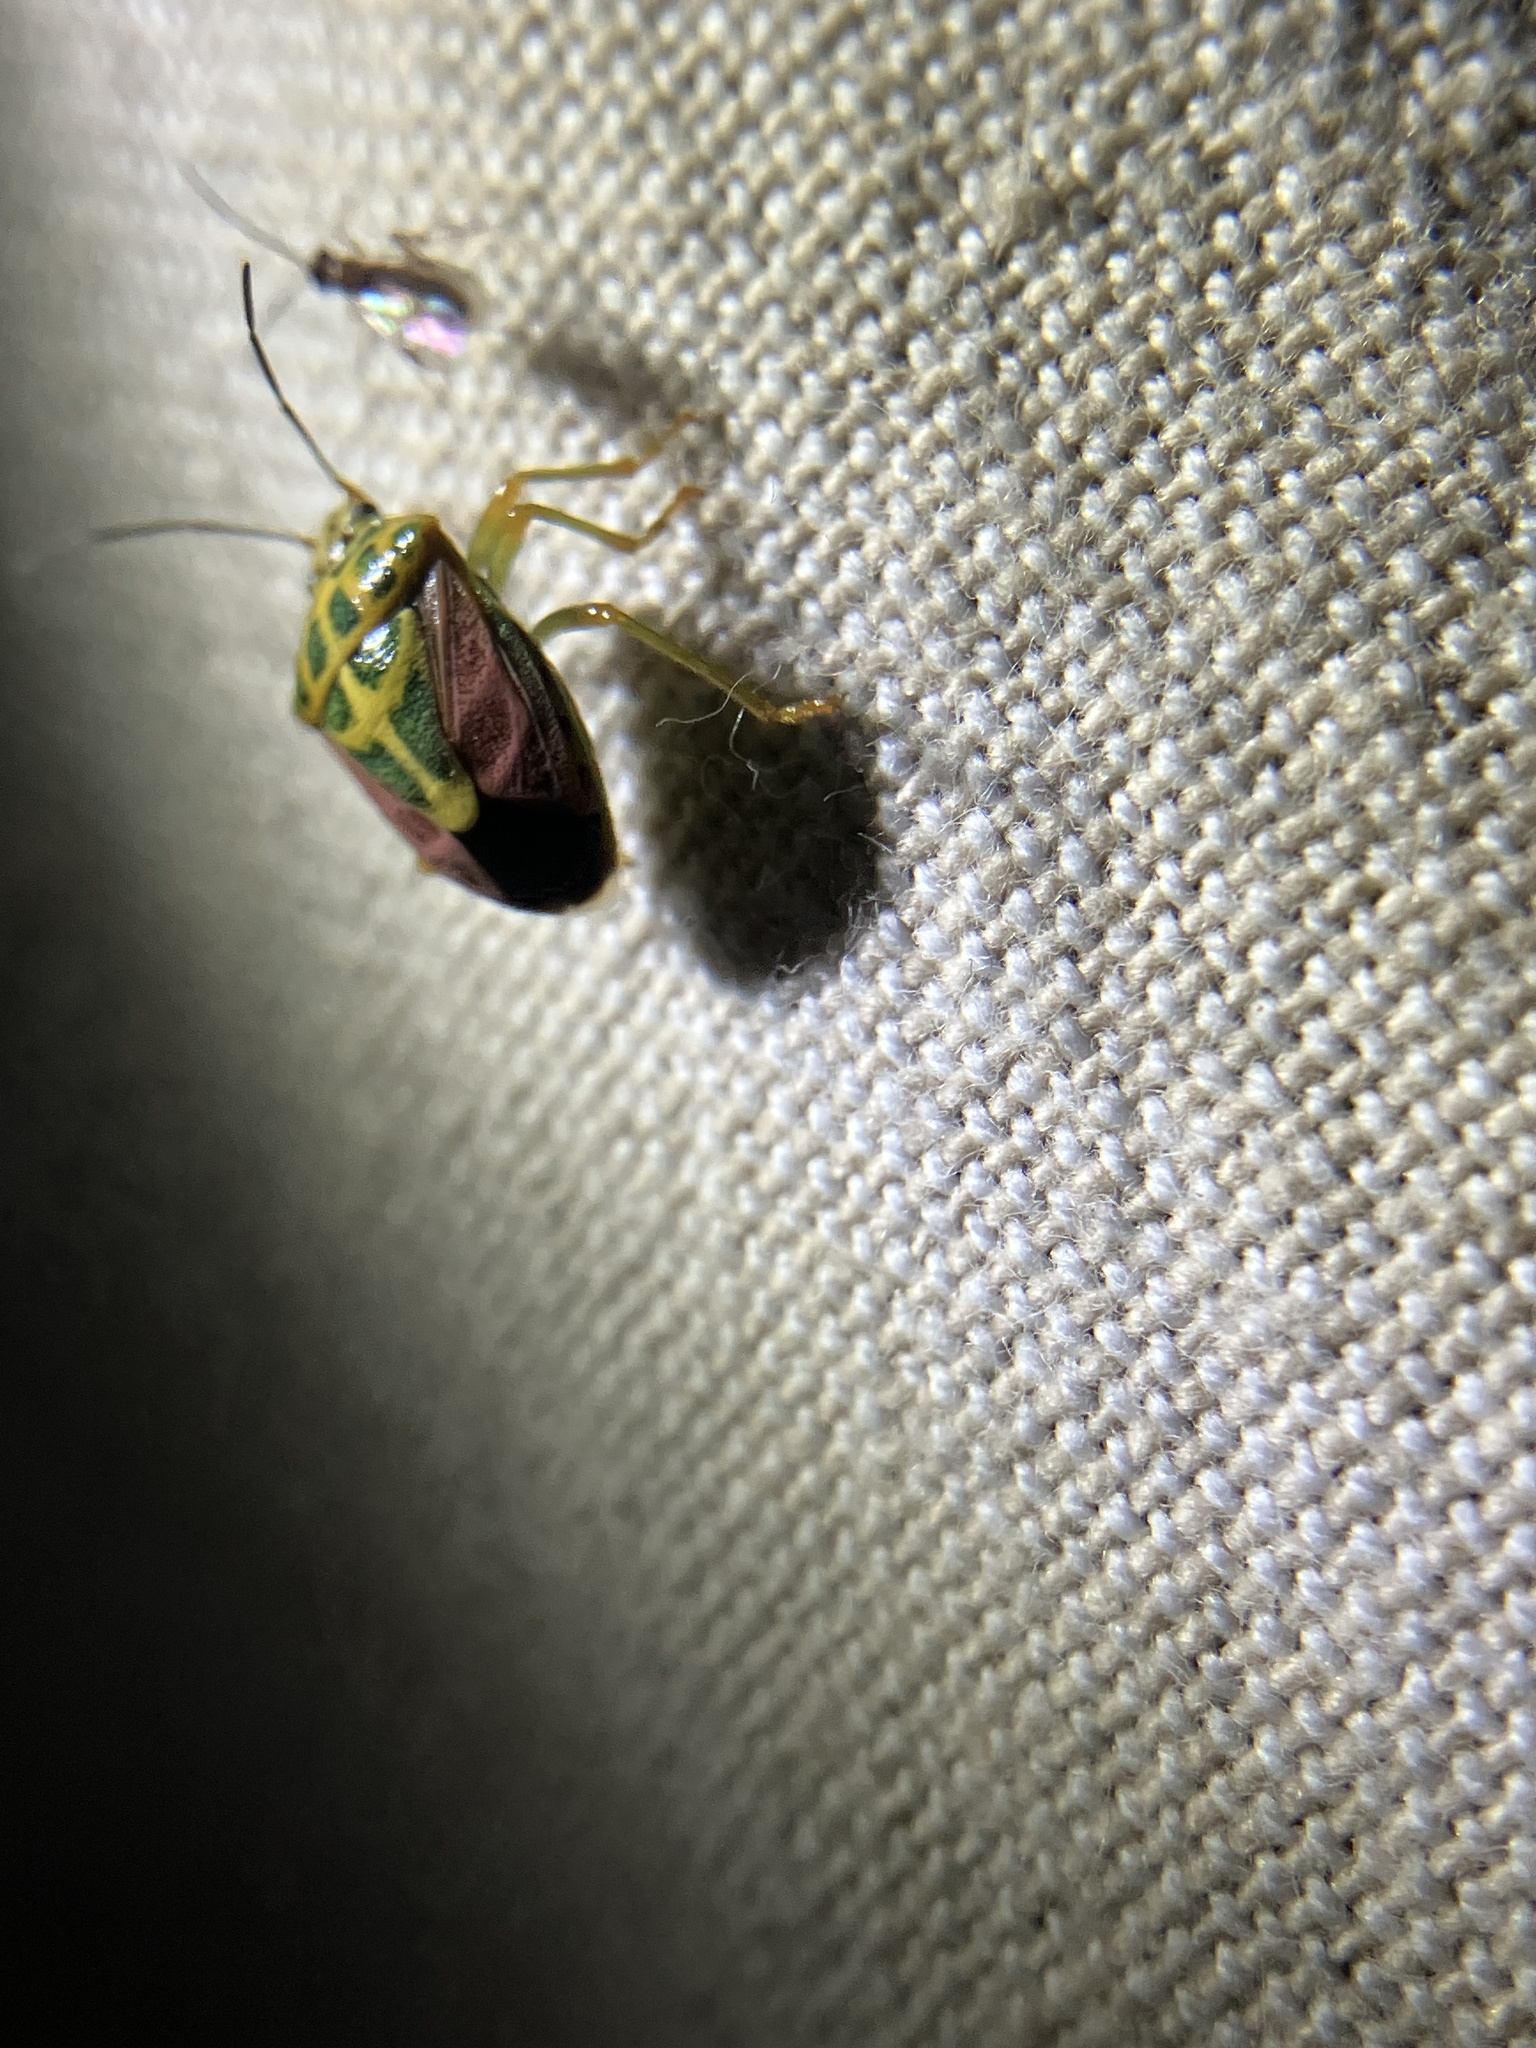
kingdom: Animalia
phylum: Arthropoda
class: Insecta
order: Hemiptera
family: Pentatomidae
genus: Antestiopsis
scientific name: Antestiopsis cruciata
